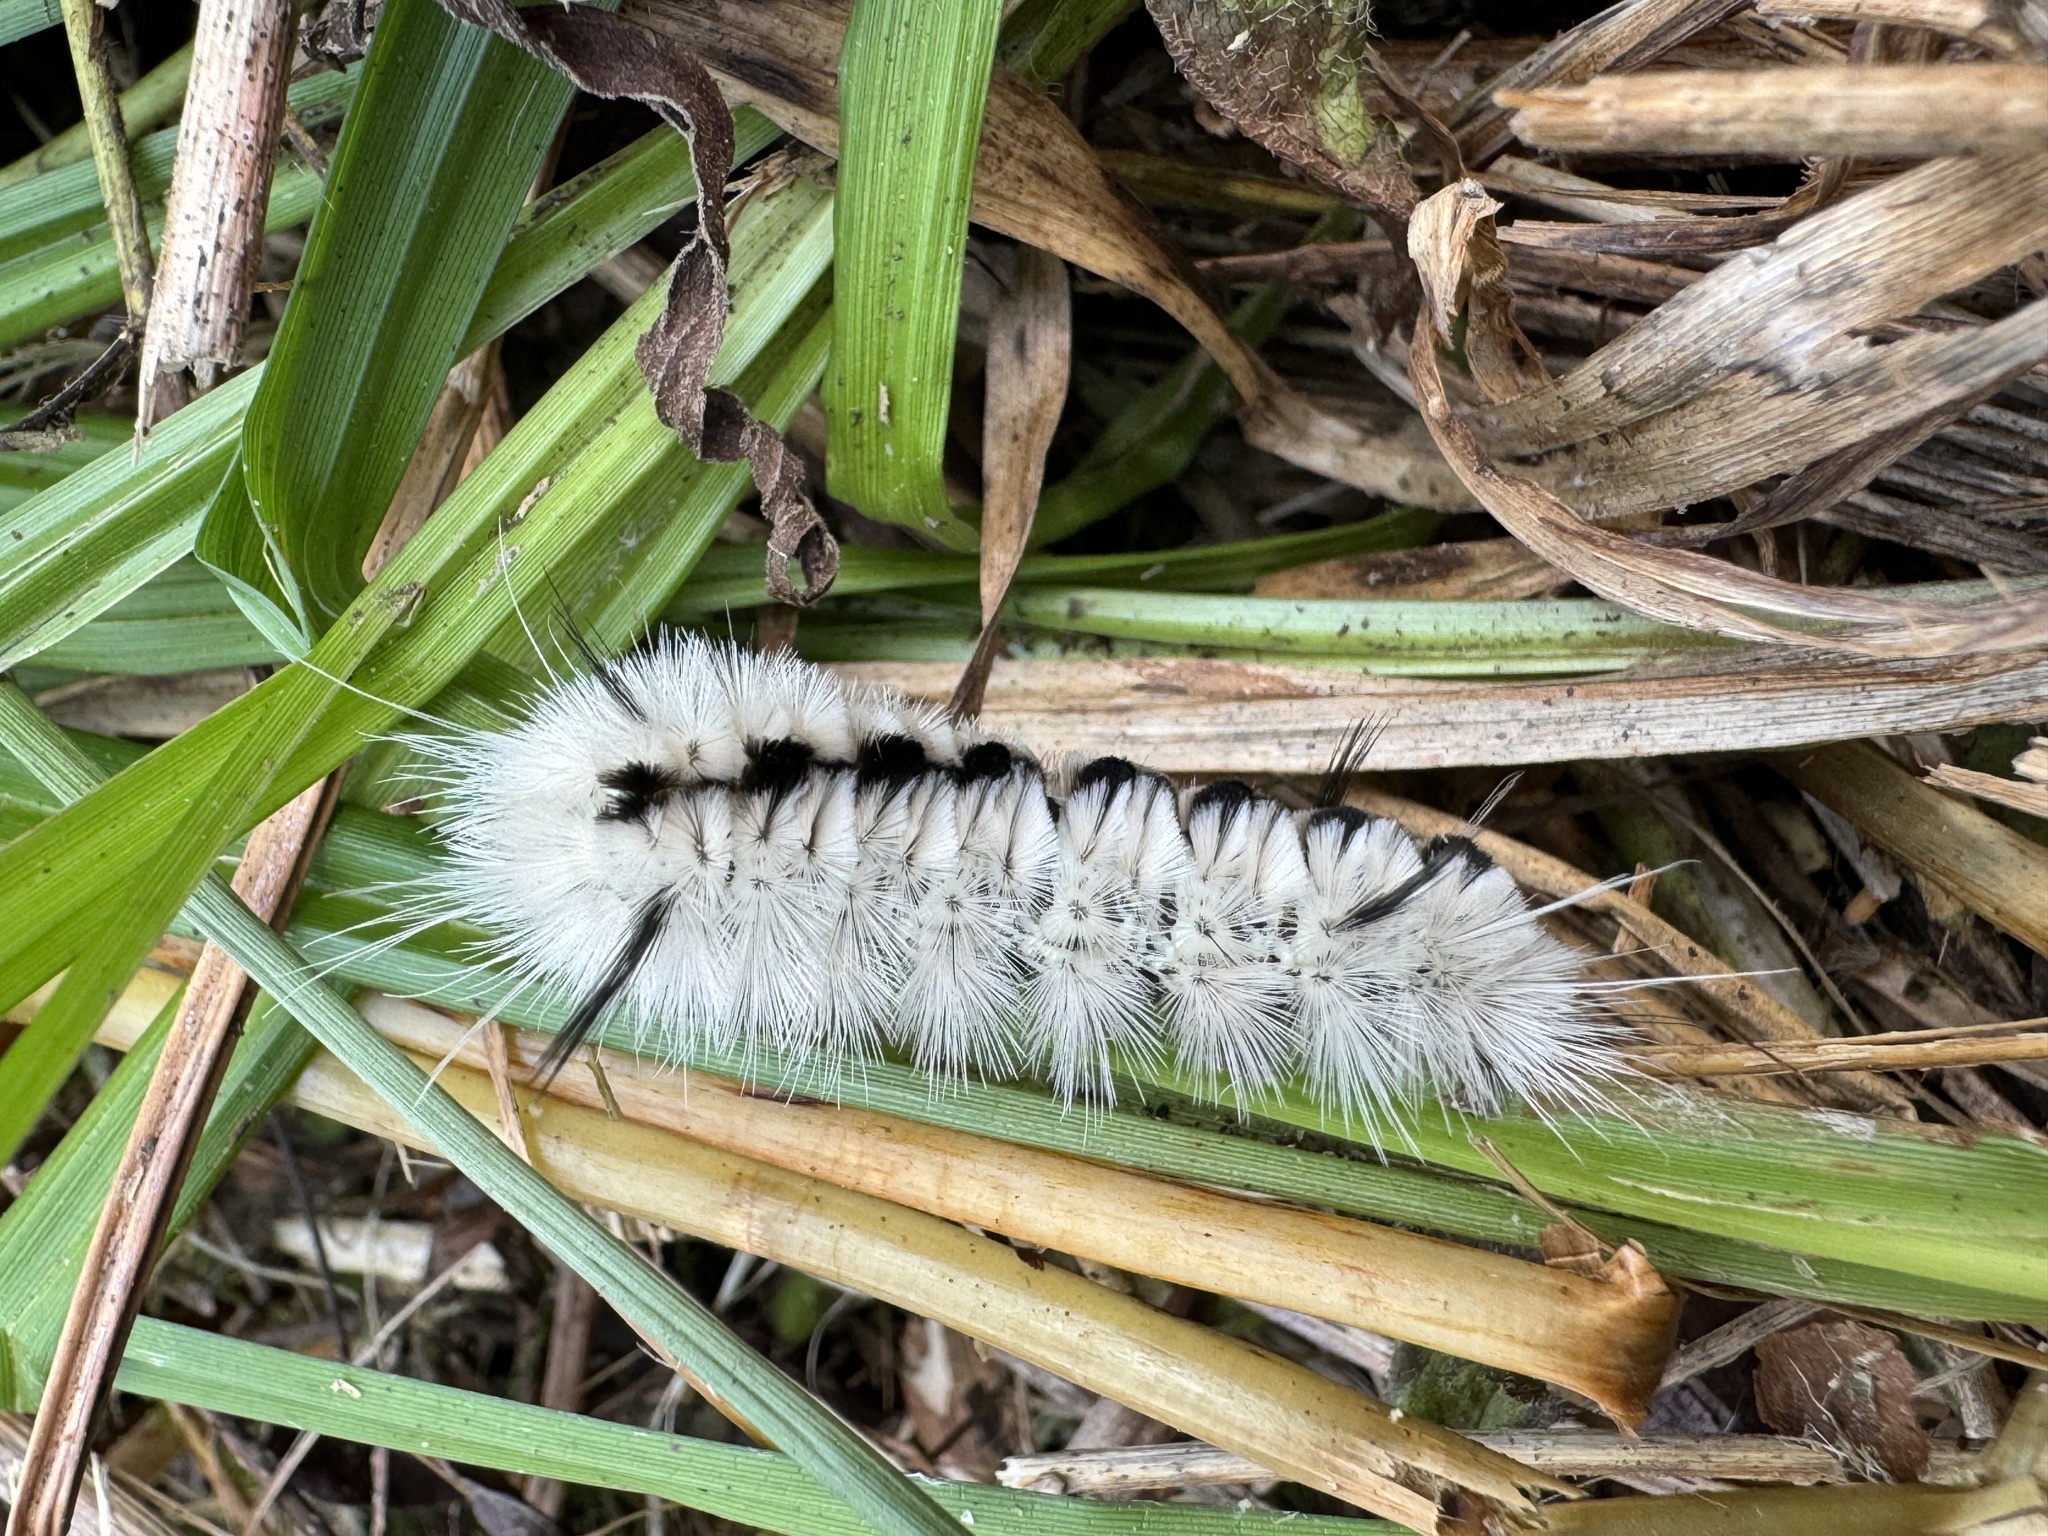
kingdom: Animalia
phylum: Arthropoda
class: Insecta
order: Lepidoptera
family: Erebidae
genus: Lophocampa
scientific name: Lophocampa caryae
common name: Hickory tussock moth
